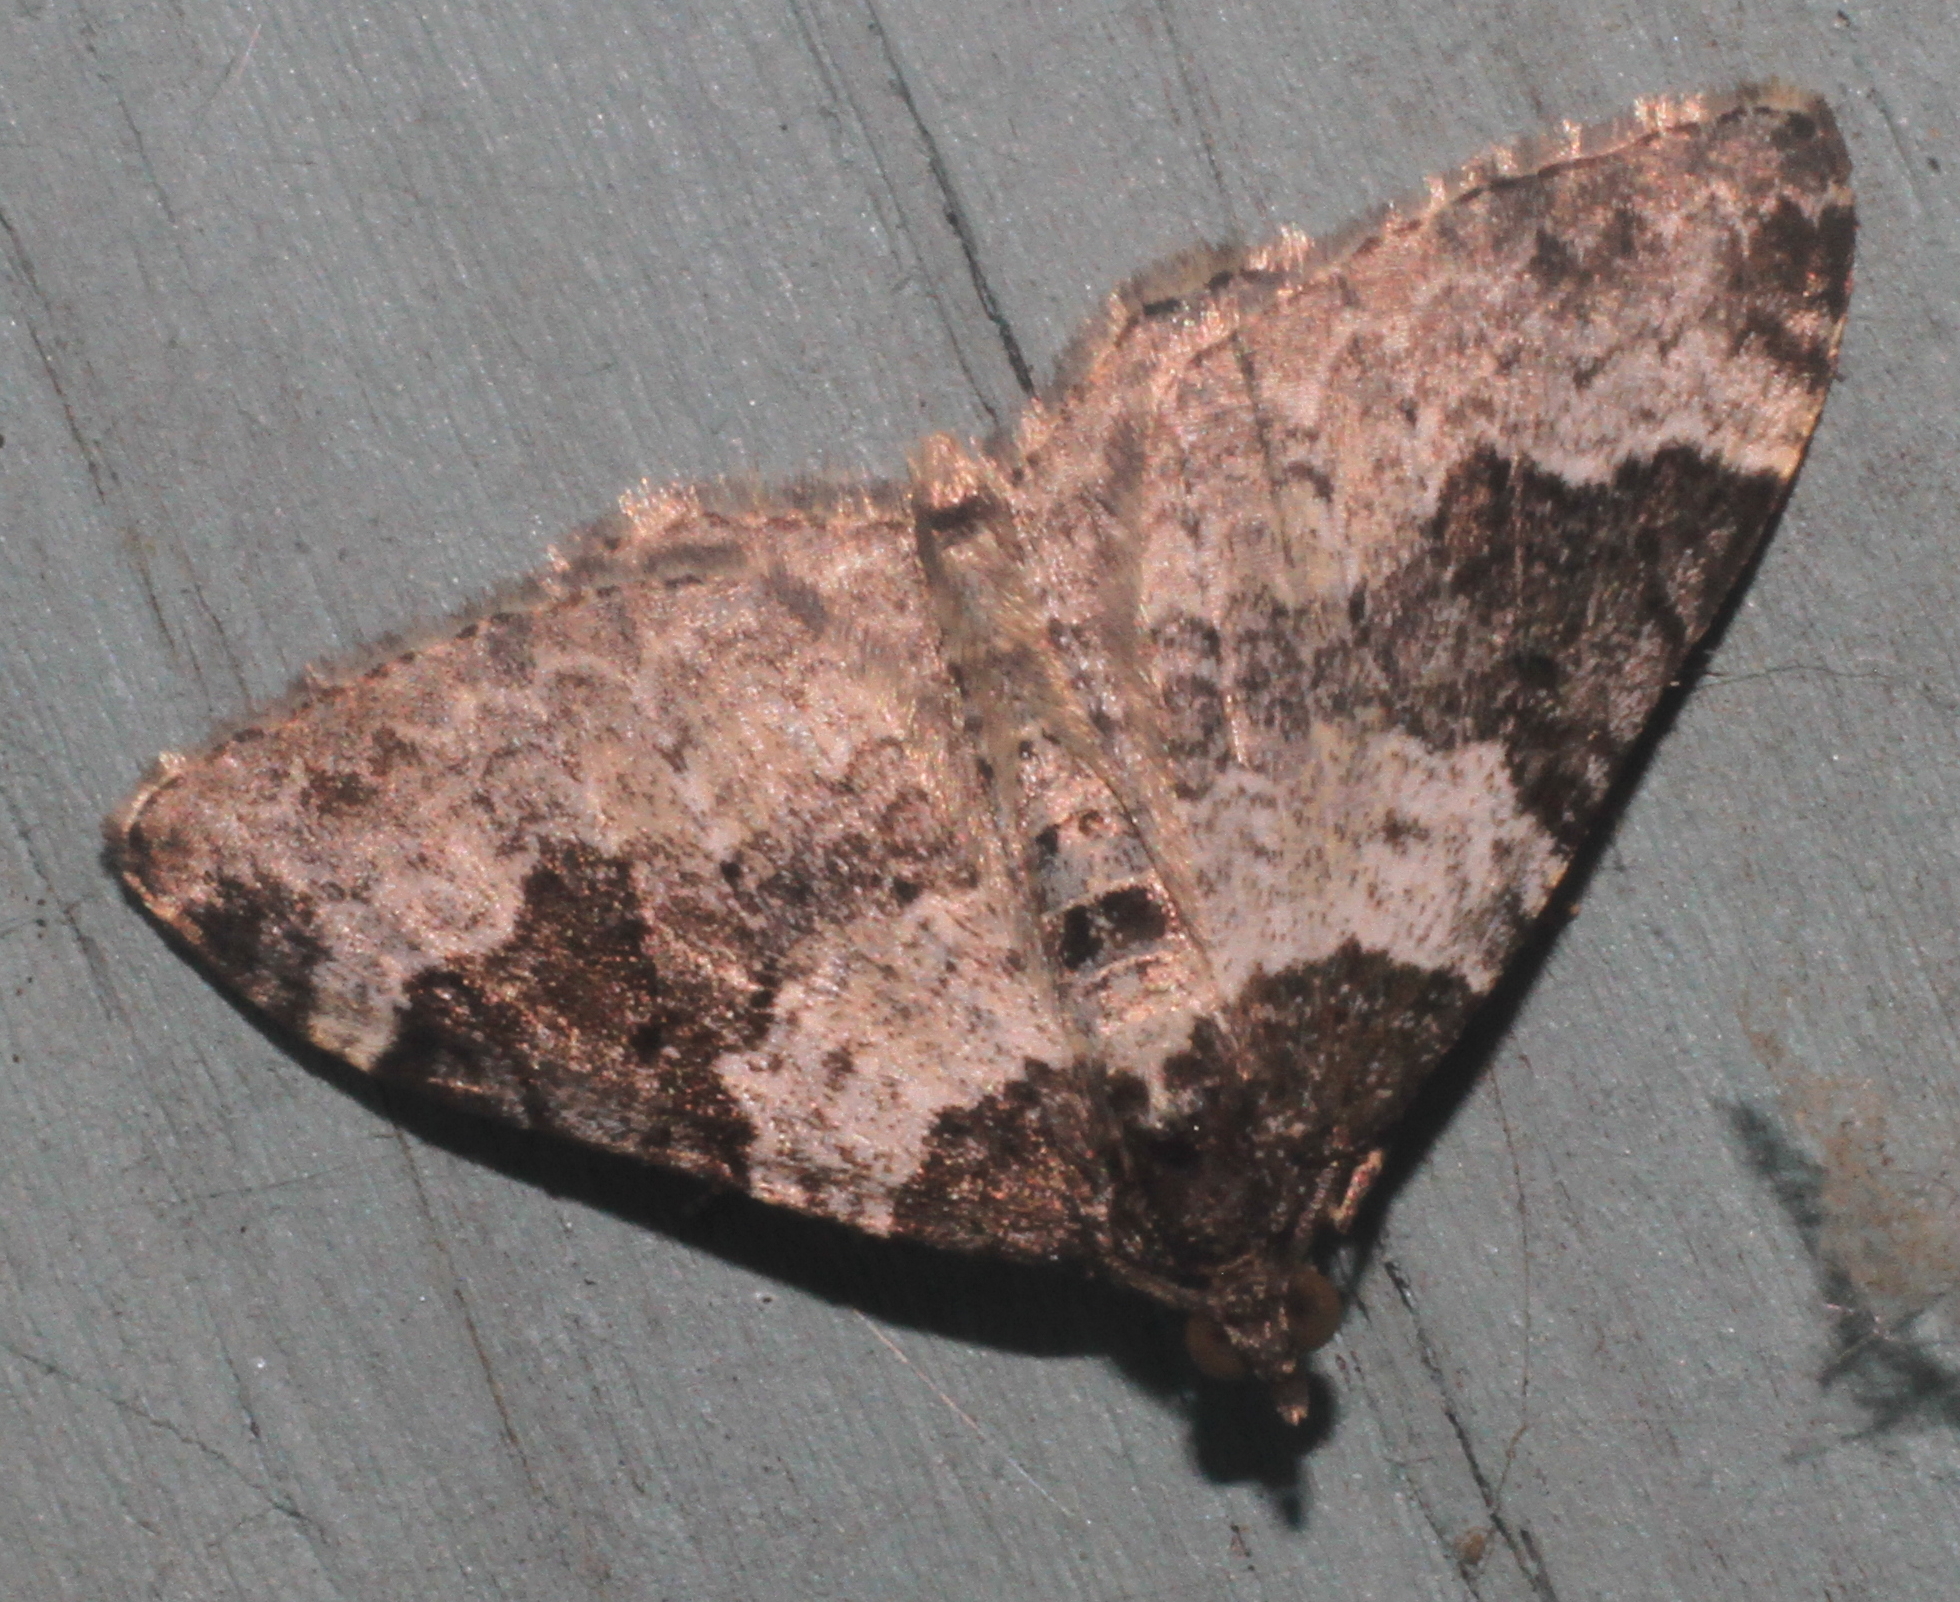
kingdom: Animalia
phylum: Arthropoda
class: Insecta
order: Lepidoptera
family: Geometridae
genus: Xanthorhoe
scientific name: Xanthorhoe fluctuata
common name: Garden carpet
